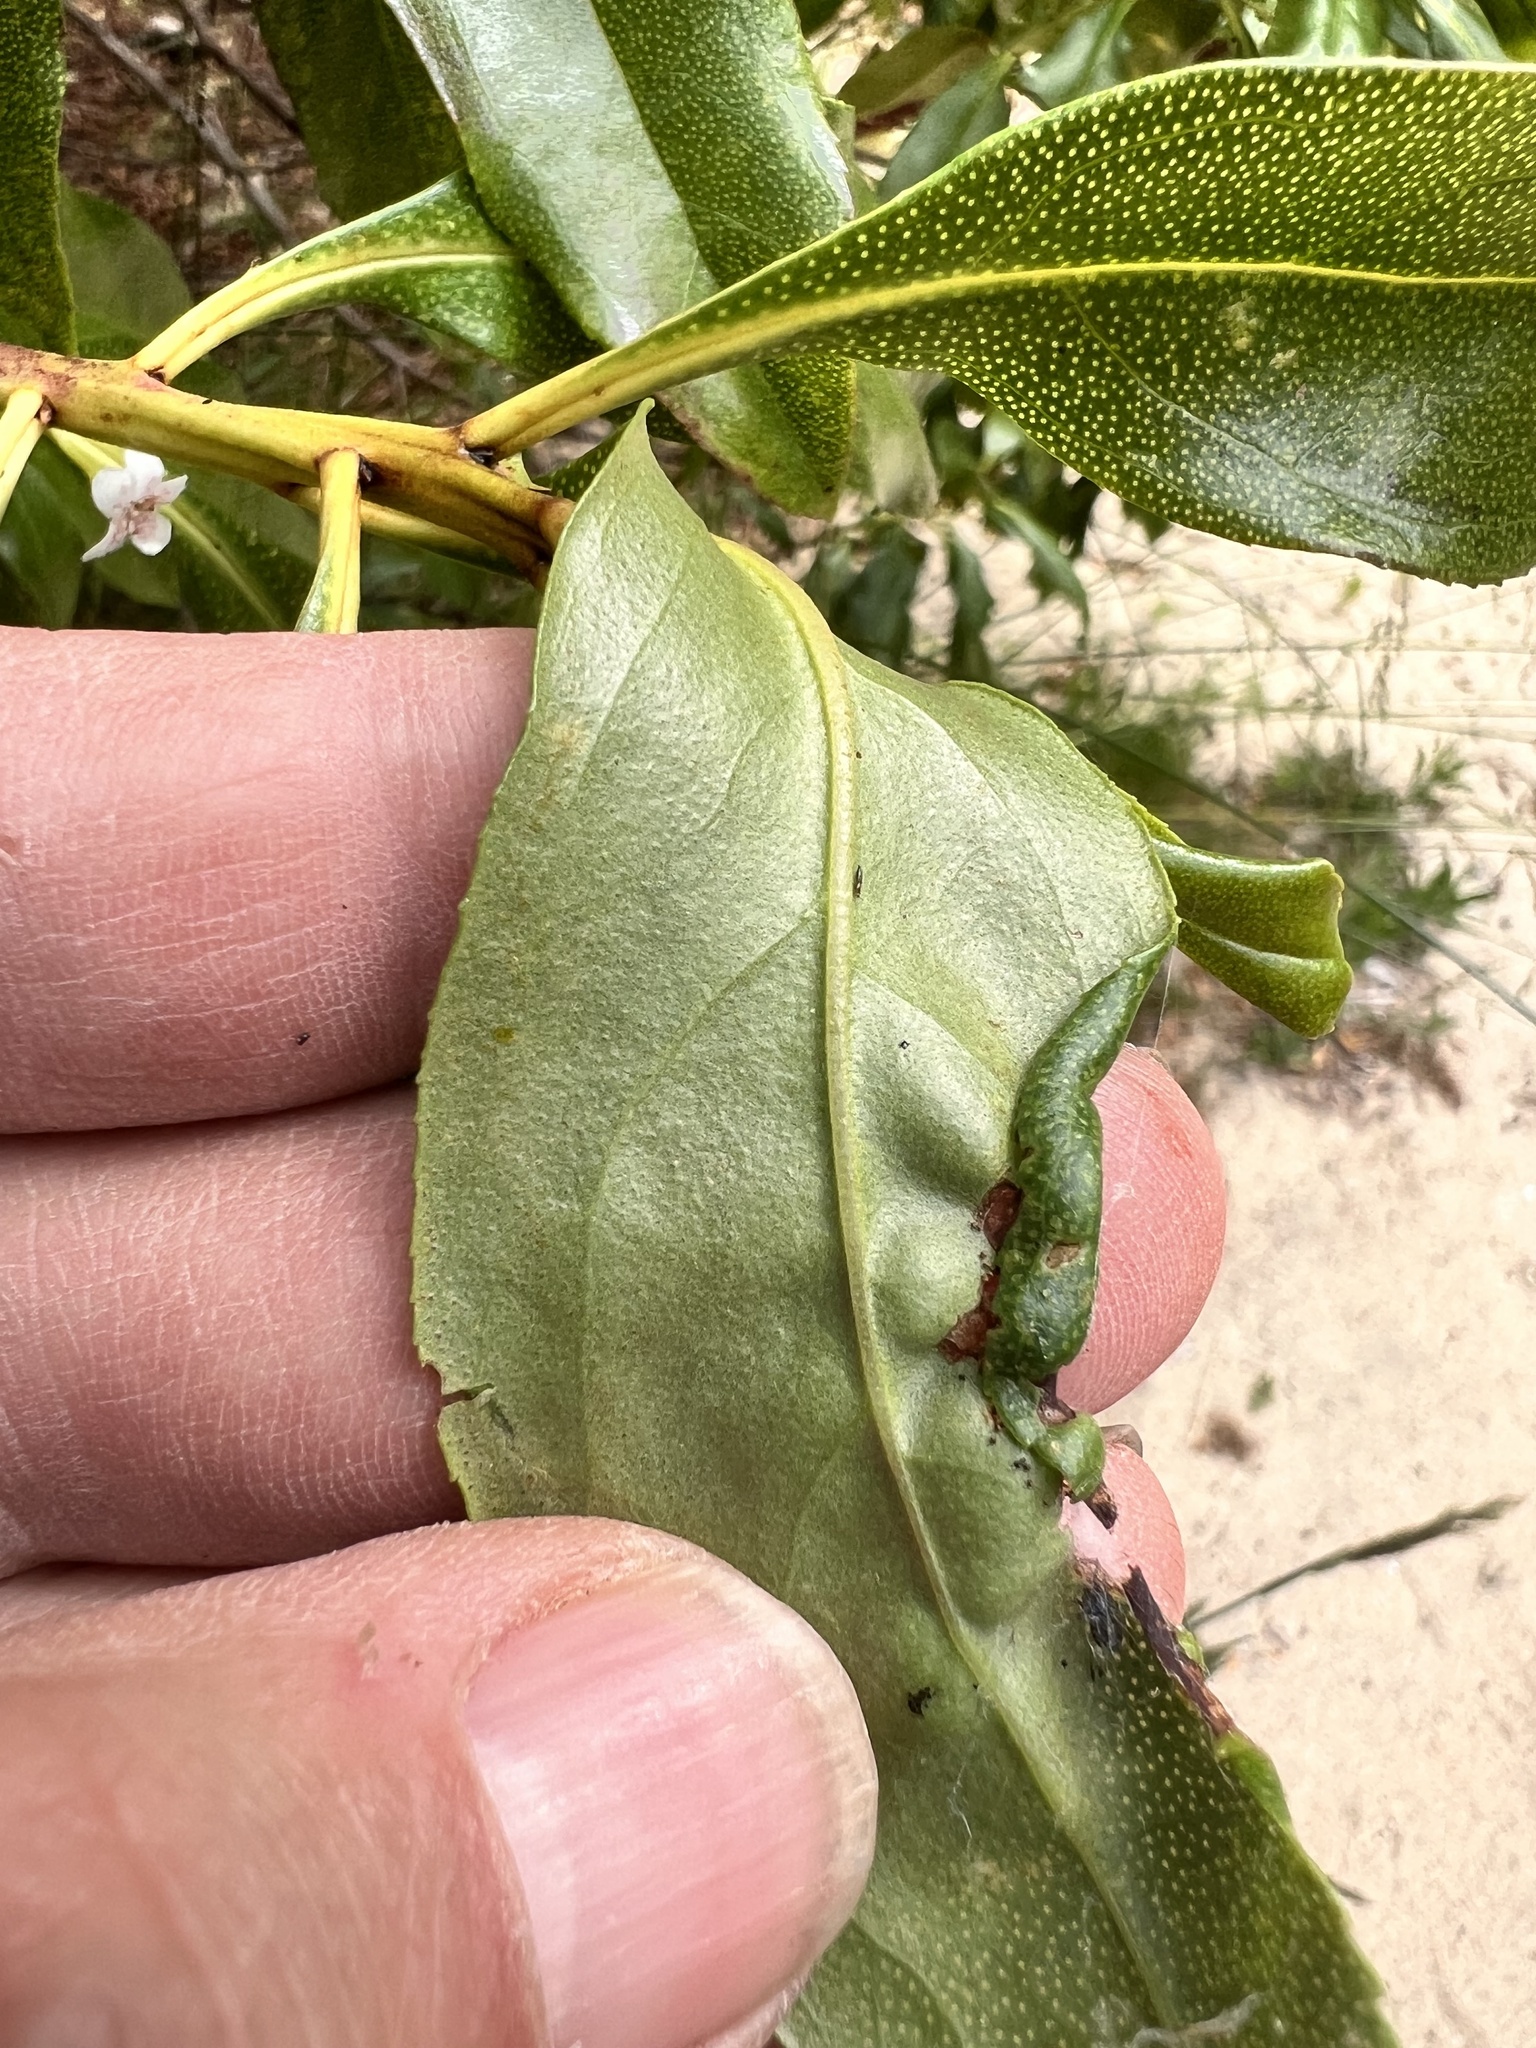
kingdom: Plantae
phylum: Tracheophyta
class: Magnoliopsida
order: Lamiales
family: Scrophulariaceae
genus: Myoporum
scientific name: Myoporum laetum
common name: Ngaio tree
